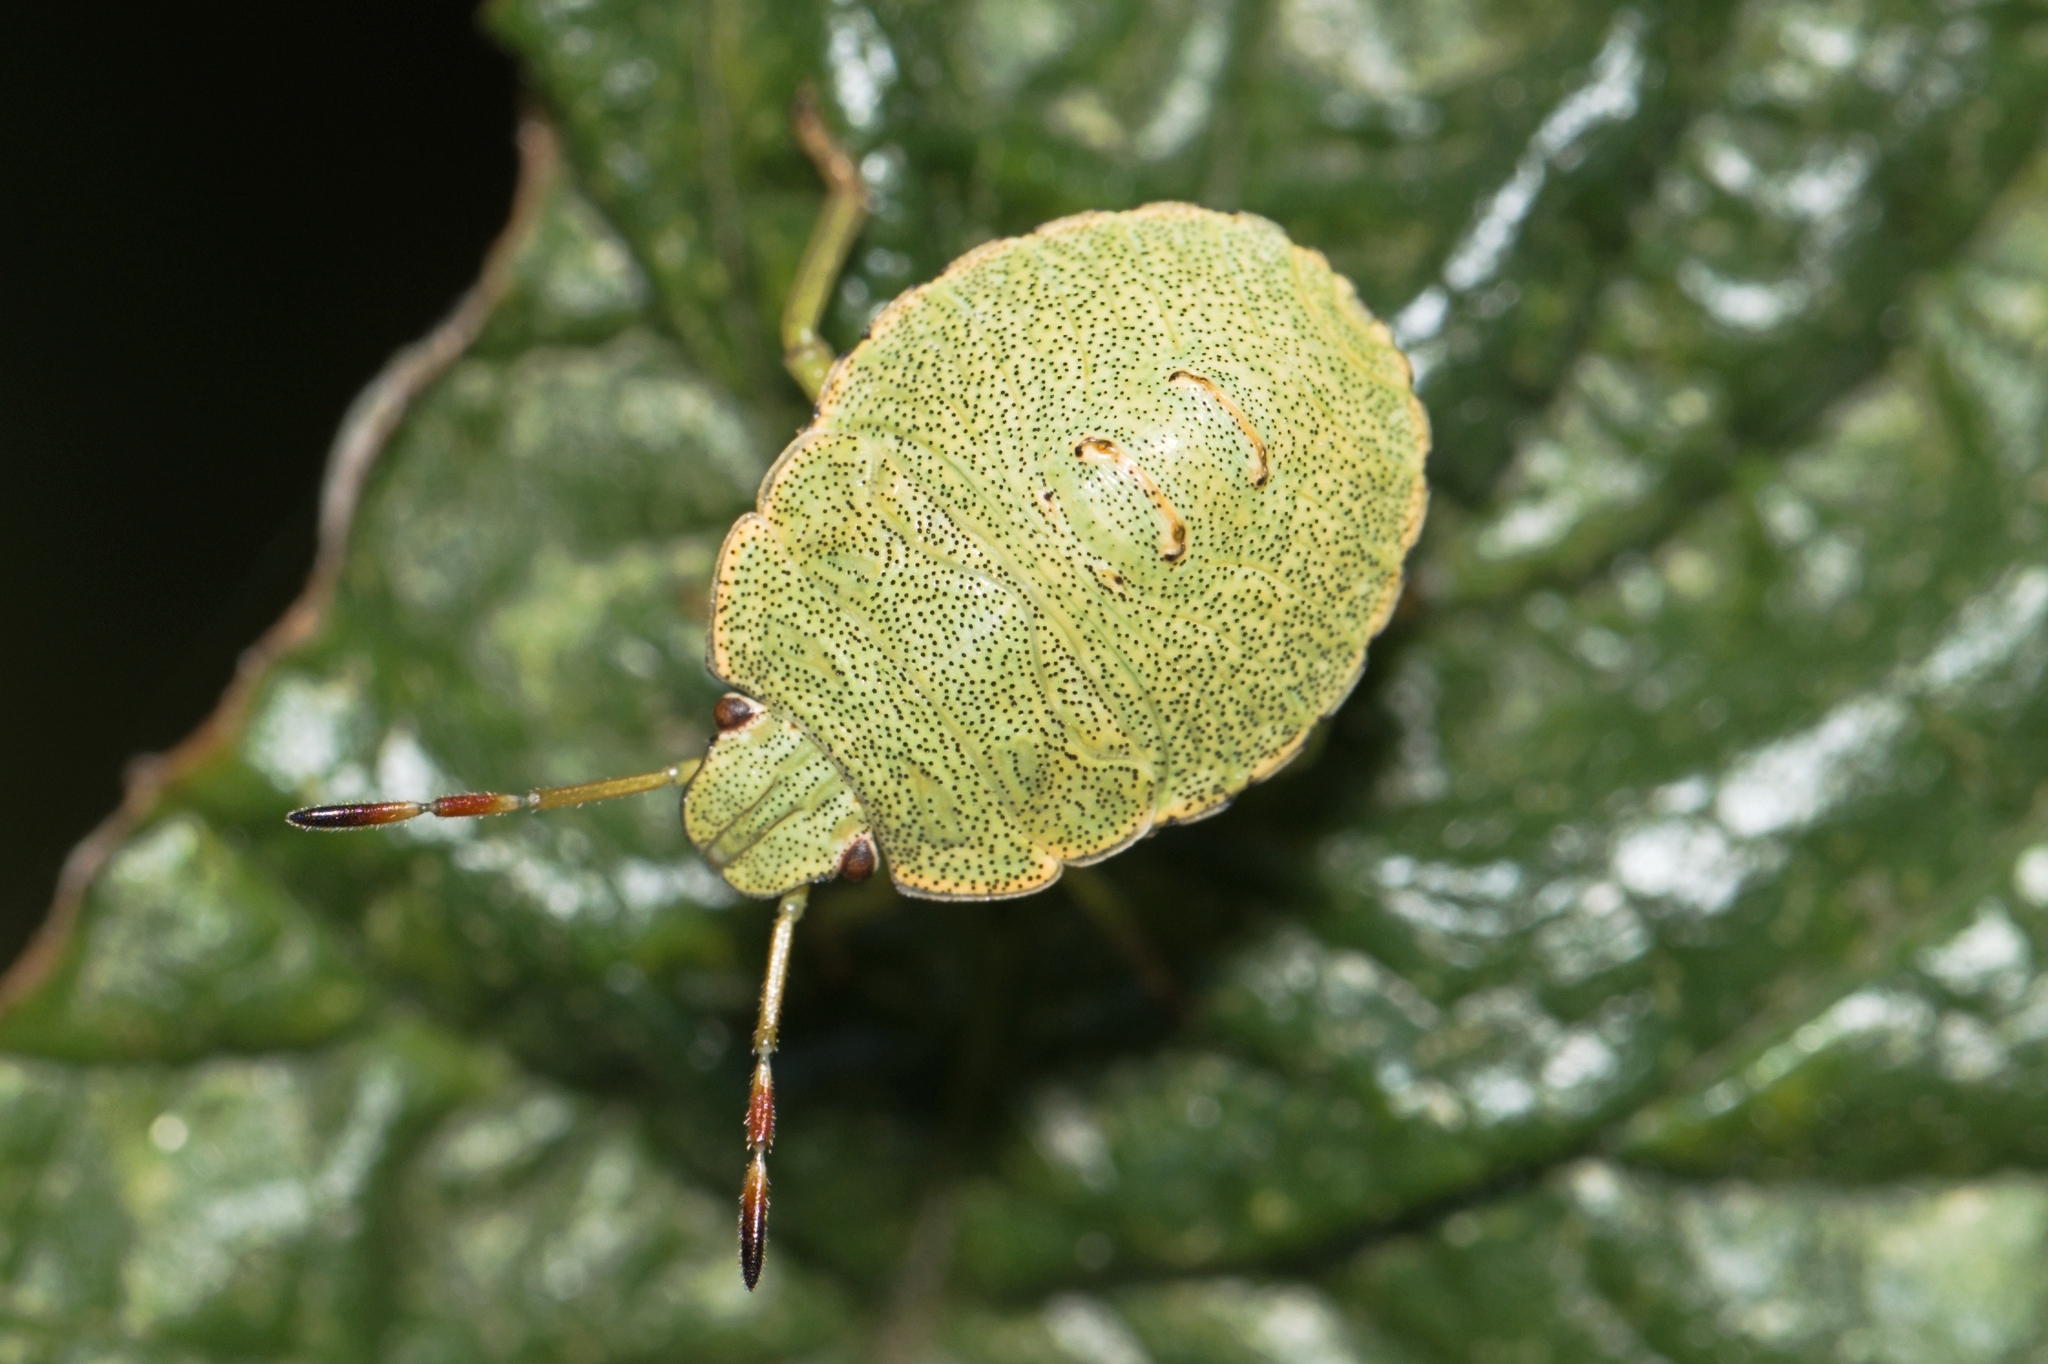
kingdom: Animalia
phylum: Arthropoda
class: Insecta
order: Hemiptera
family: Pentatomidae
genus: Palomena
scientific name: Palomena prasina
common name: Green shieldbug
